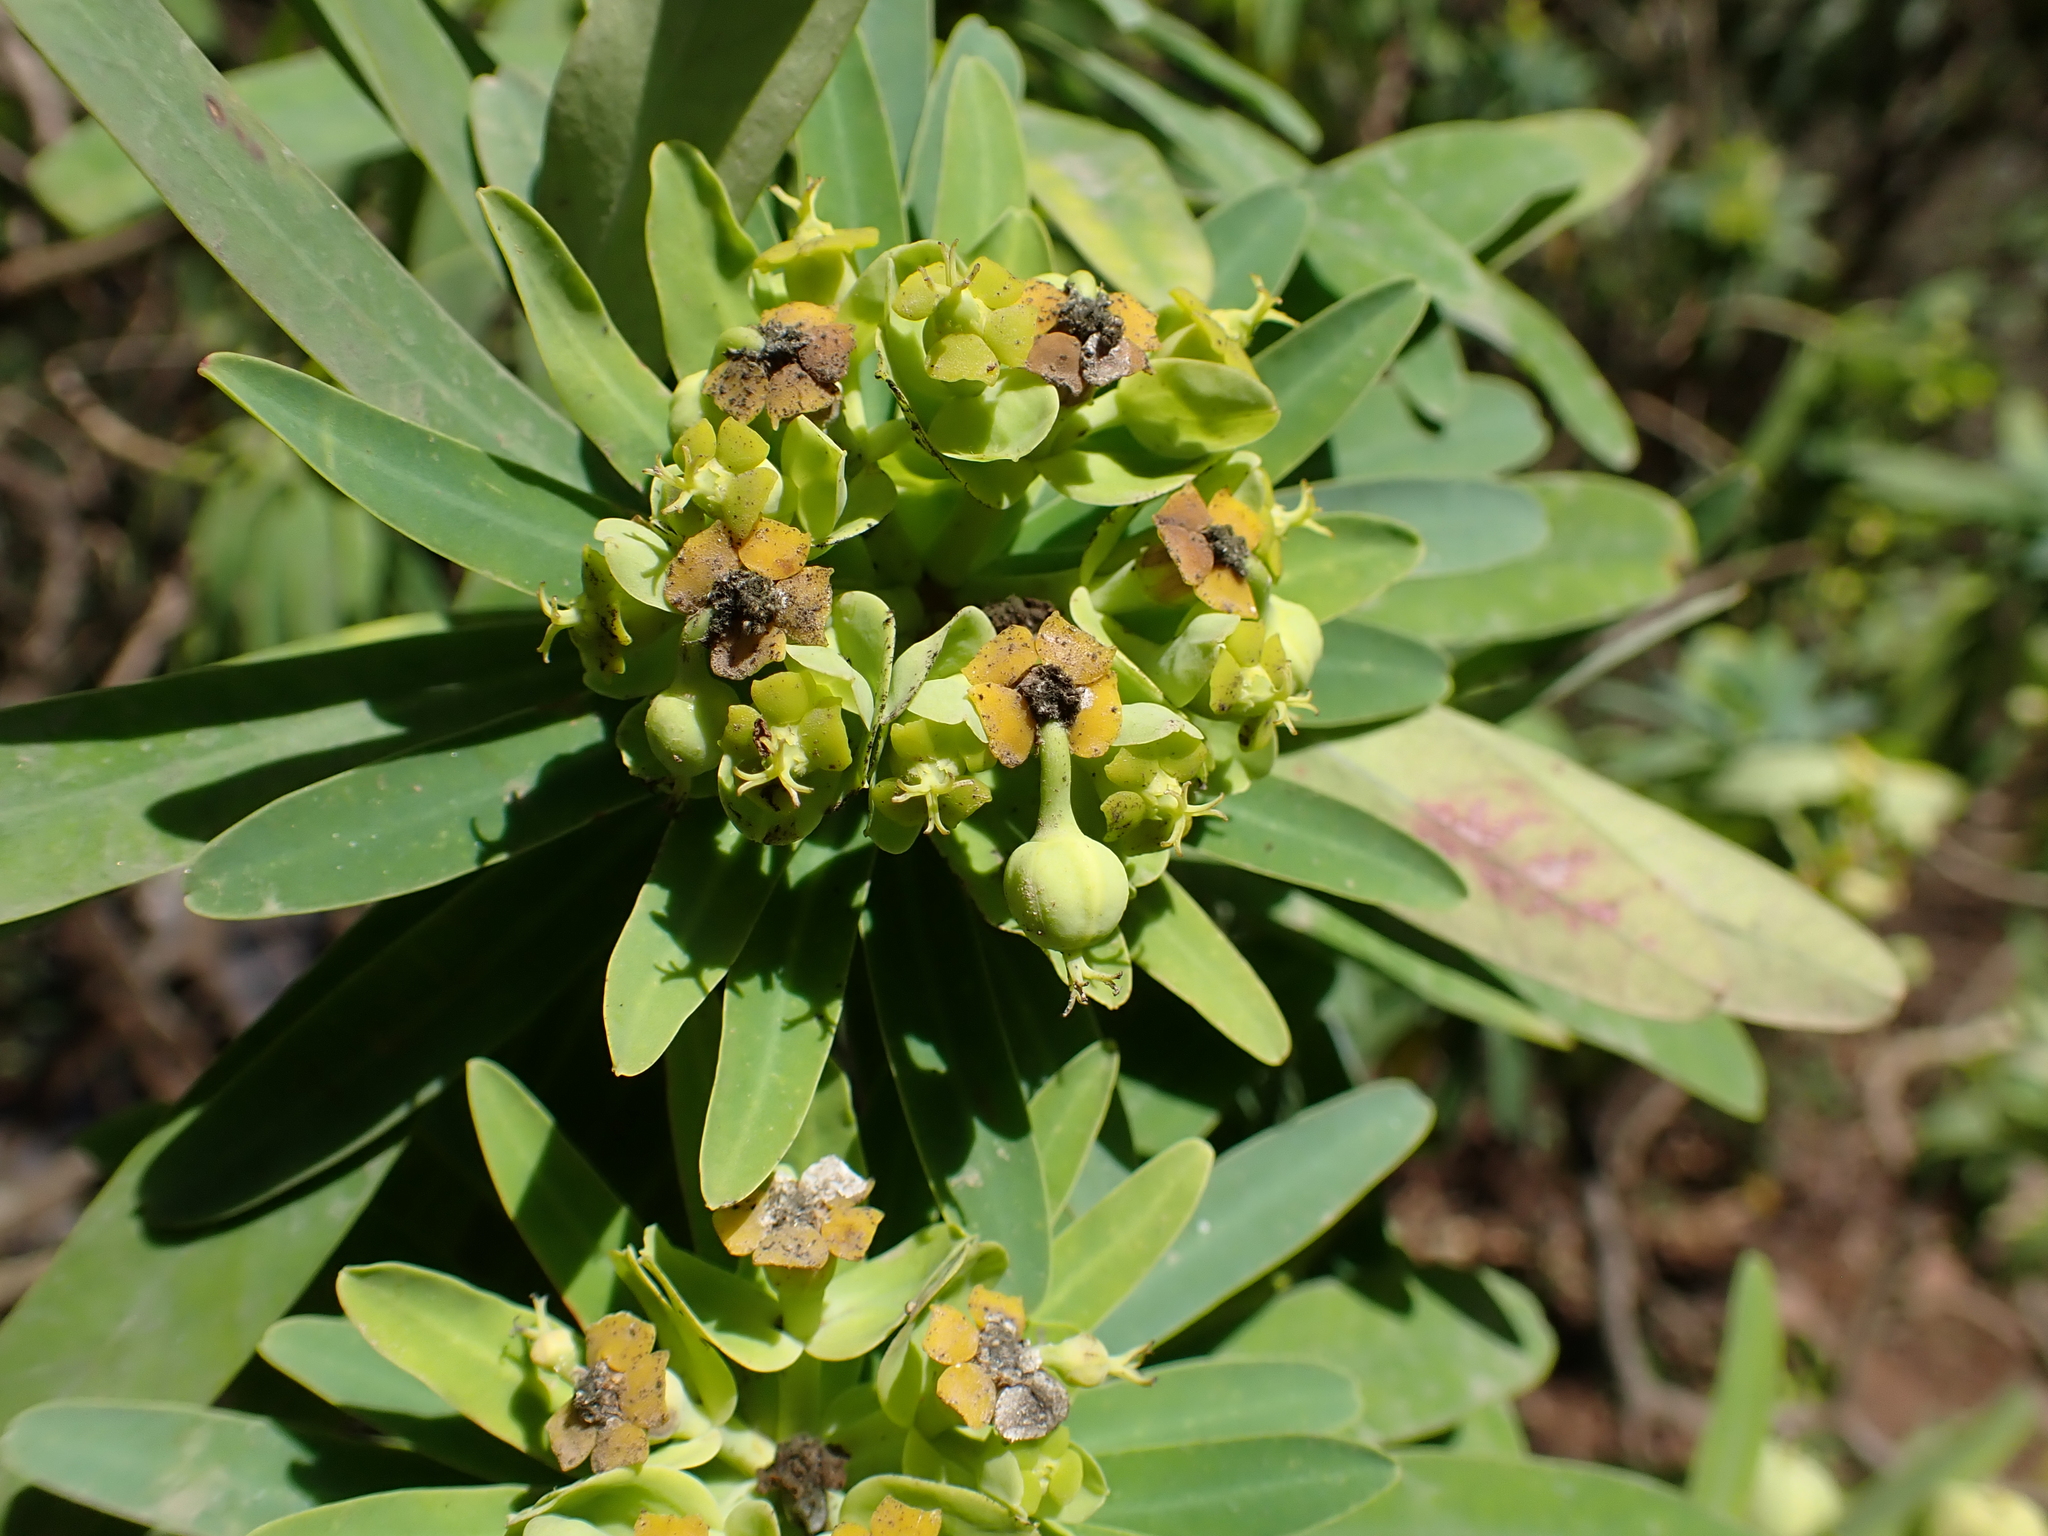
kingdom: Plantae
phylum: Tracheophyta
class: Magnoliopsida
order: Malpighiales
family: Euphorbiaceae
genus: Euphorbia
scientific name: Euphorbia tuckeyana
